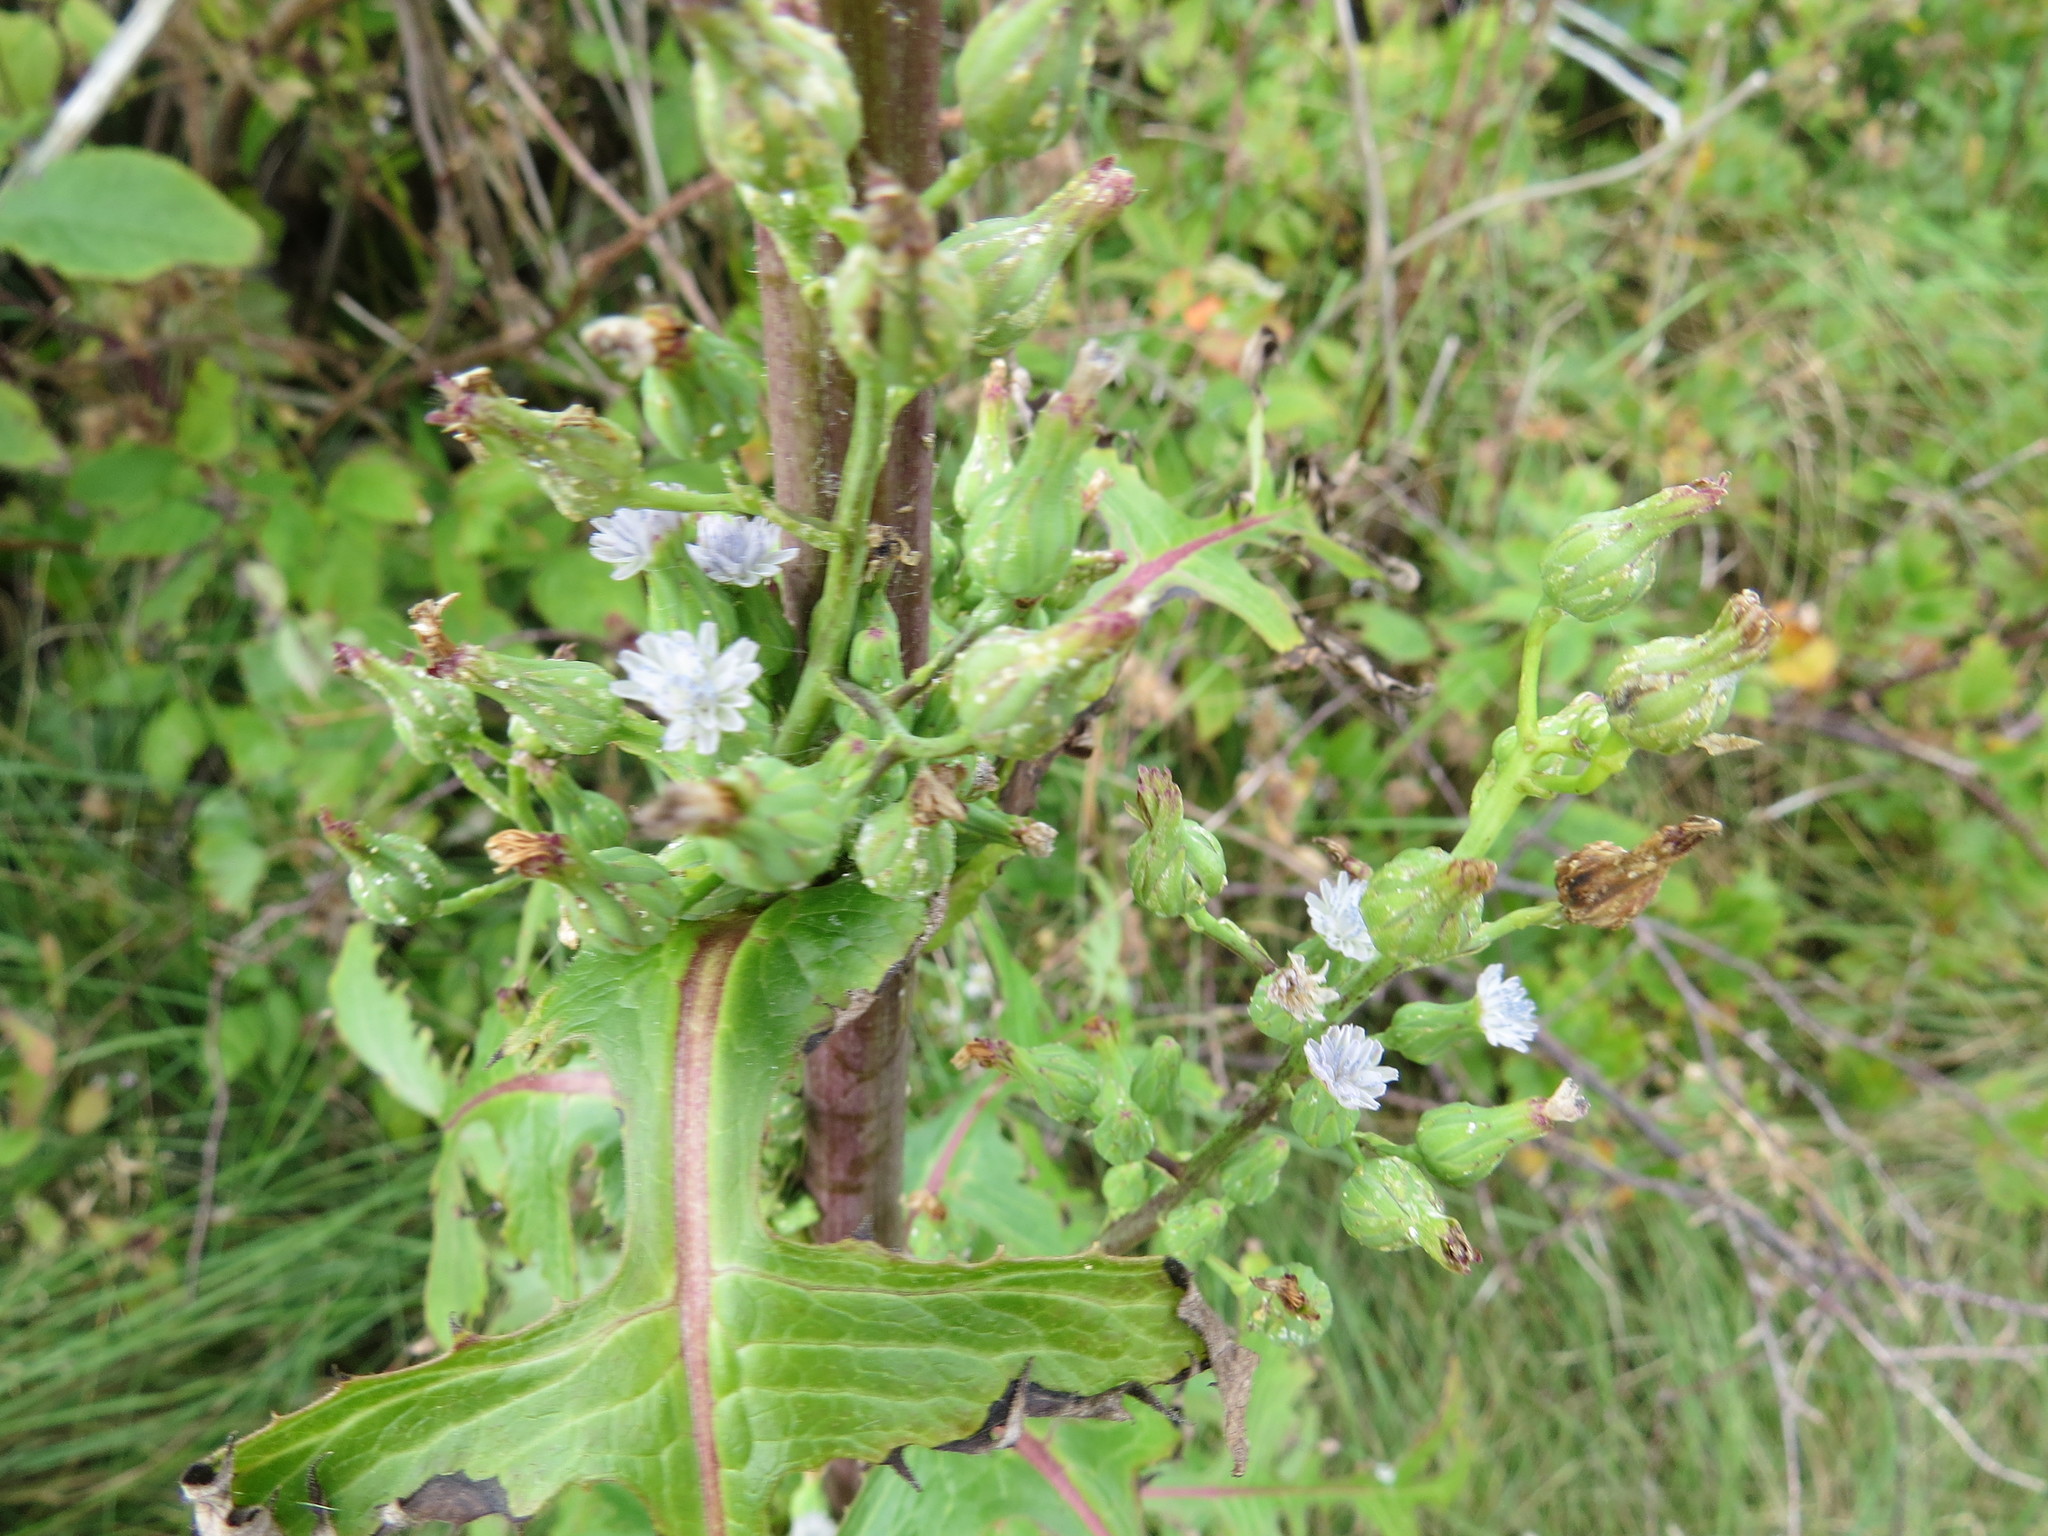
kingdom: Plantae
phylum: Tracheophyta
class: Magnoliopsida
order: Asterales
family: Asteraceae
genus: Lactuca
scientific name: Lactuca biennis
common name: Blue wood lettuce
